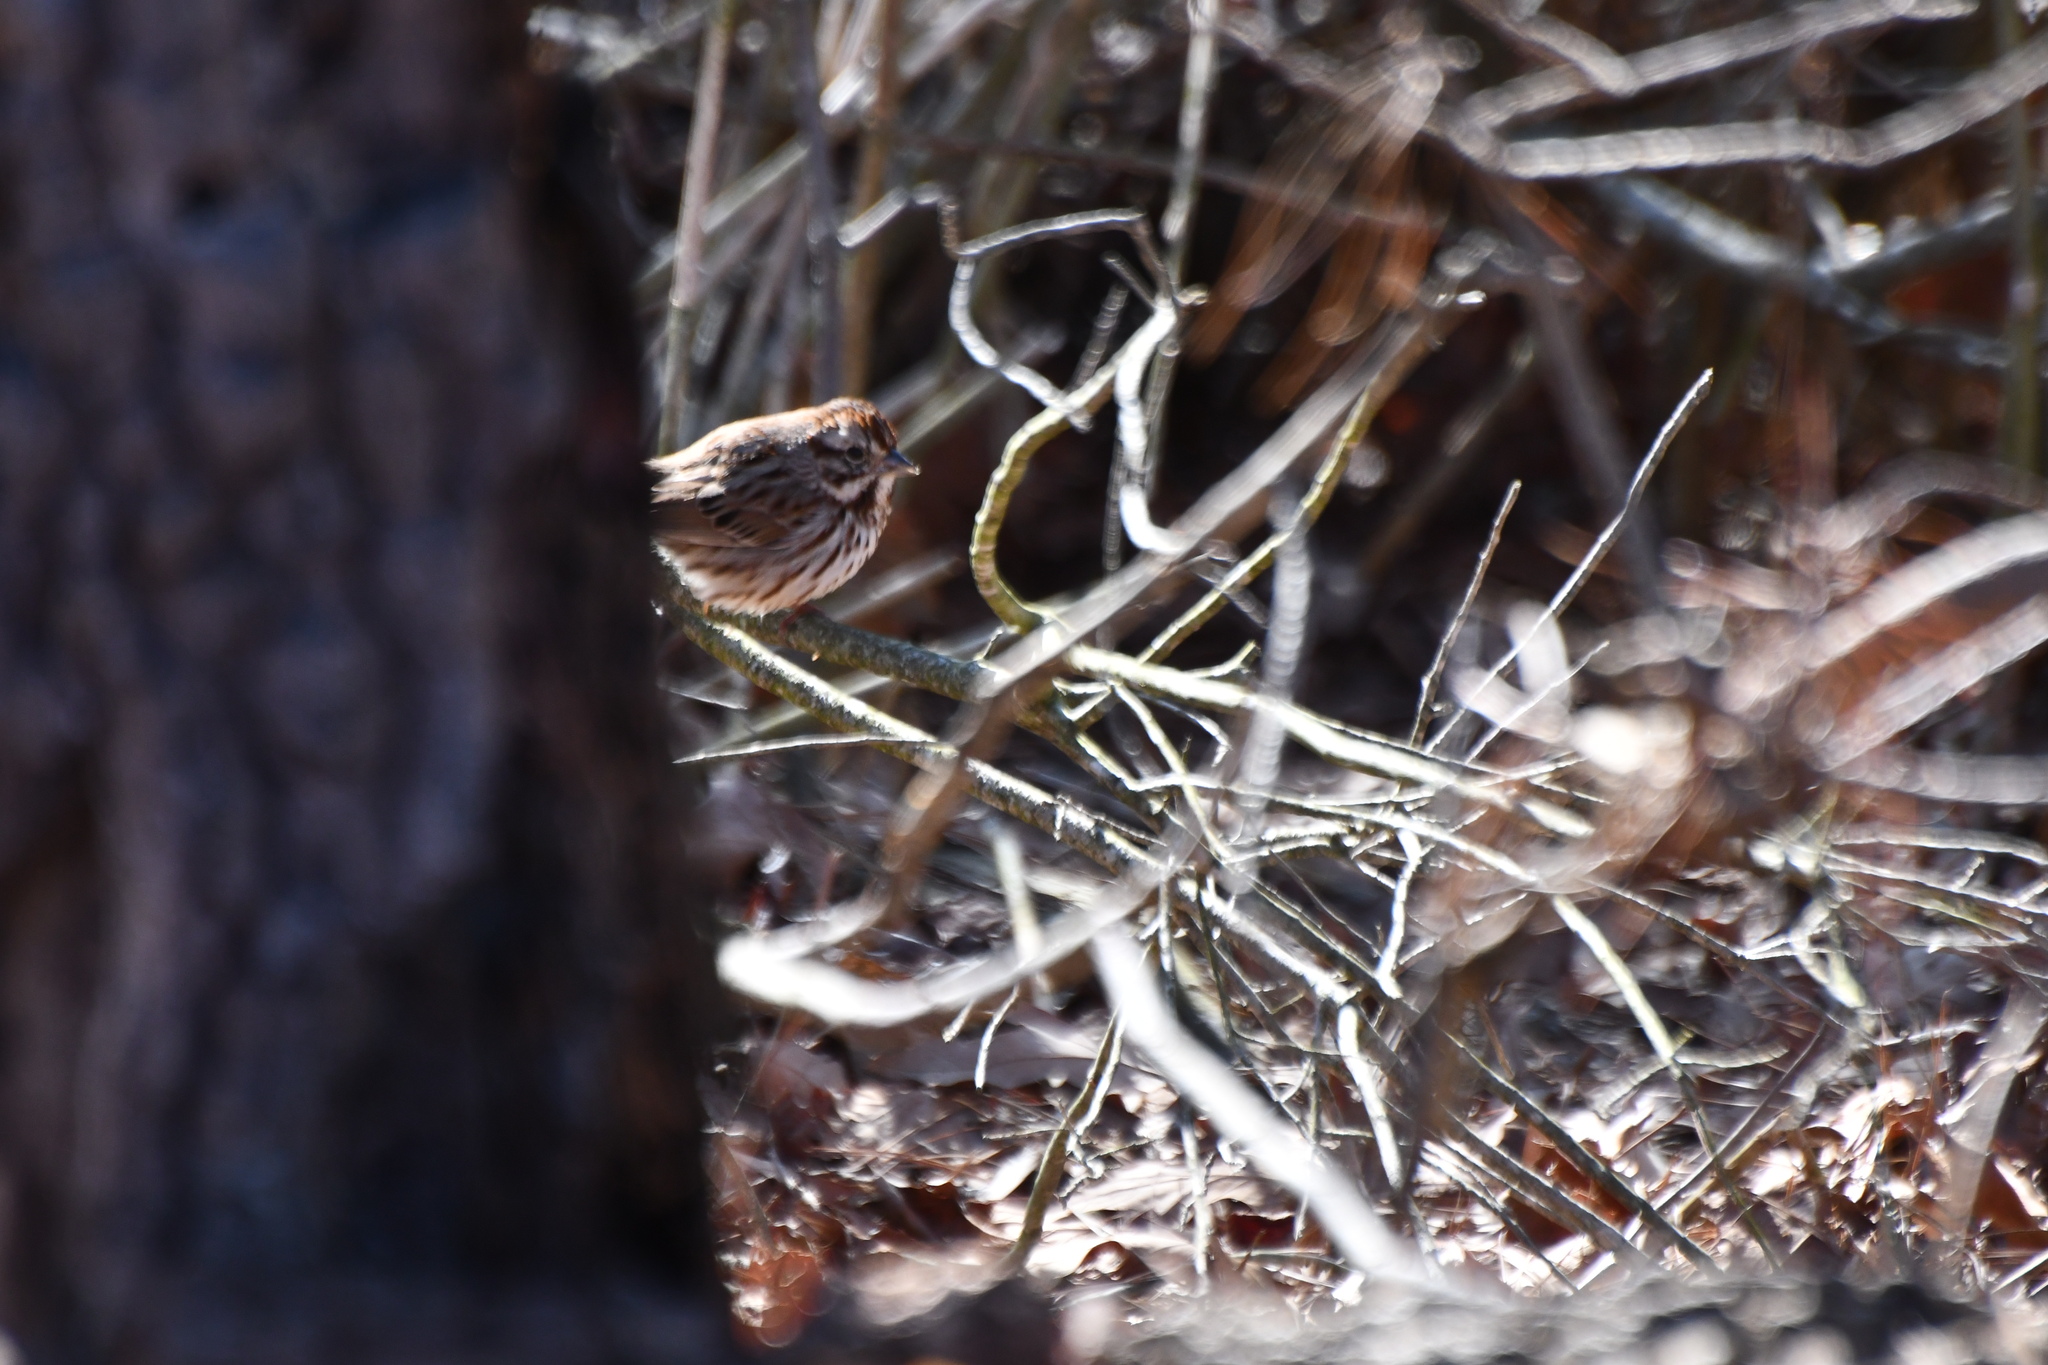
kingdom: Animalia
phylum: Chordata
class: Aves
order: Passeriformes
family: Passerellidae
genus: Melospiza
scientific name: Melospiza melodia
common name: Song sparrow
